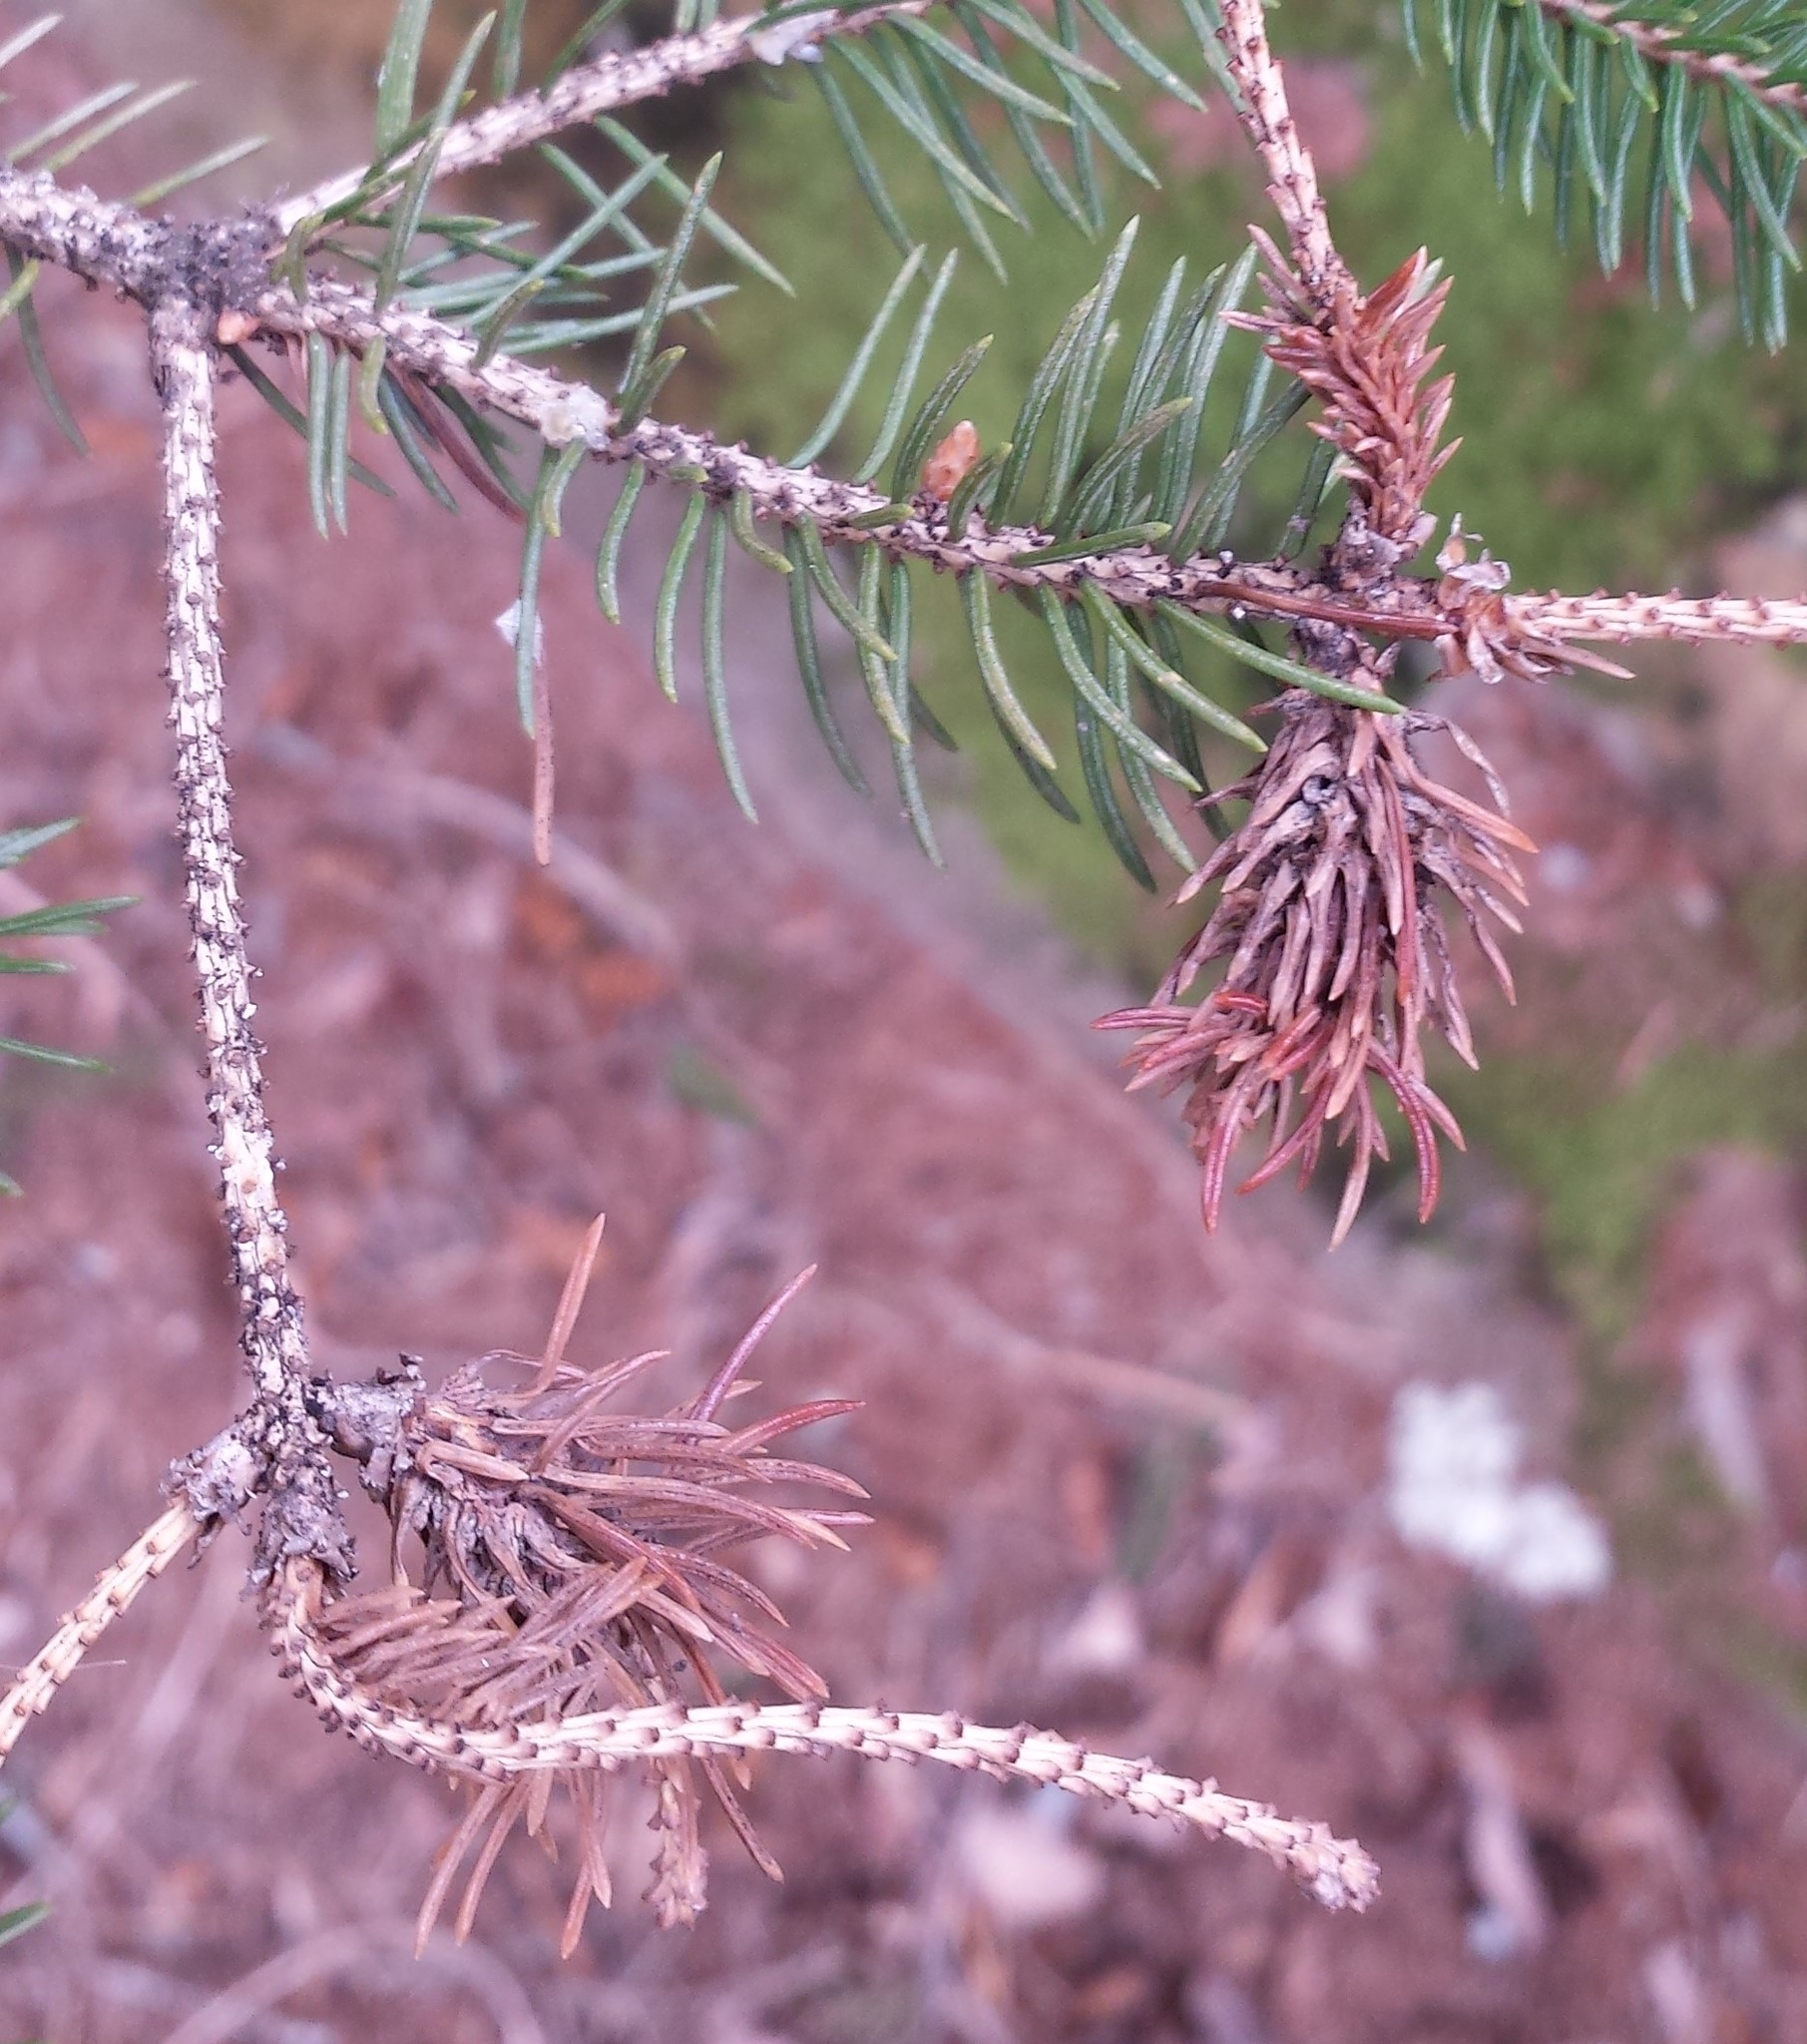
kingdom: Animalia
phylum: Arthropoda
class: Insecta
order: Hemiptera
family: Adelgidae
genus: Adelges
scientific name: Adelges abietis
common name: Eastern spruce gall adelgid
